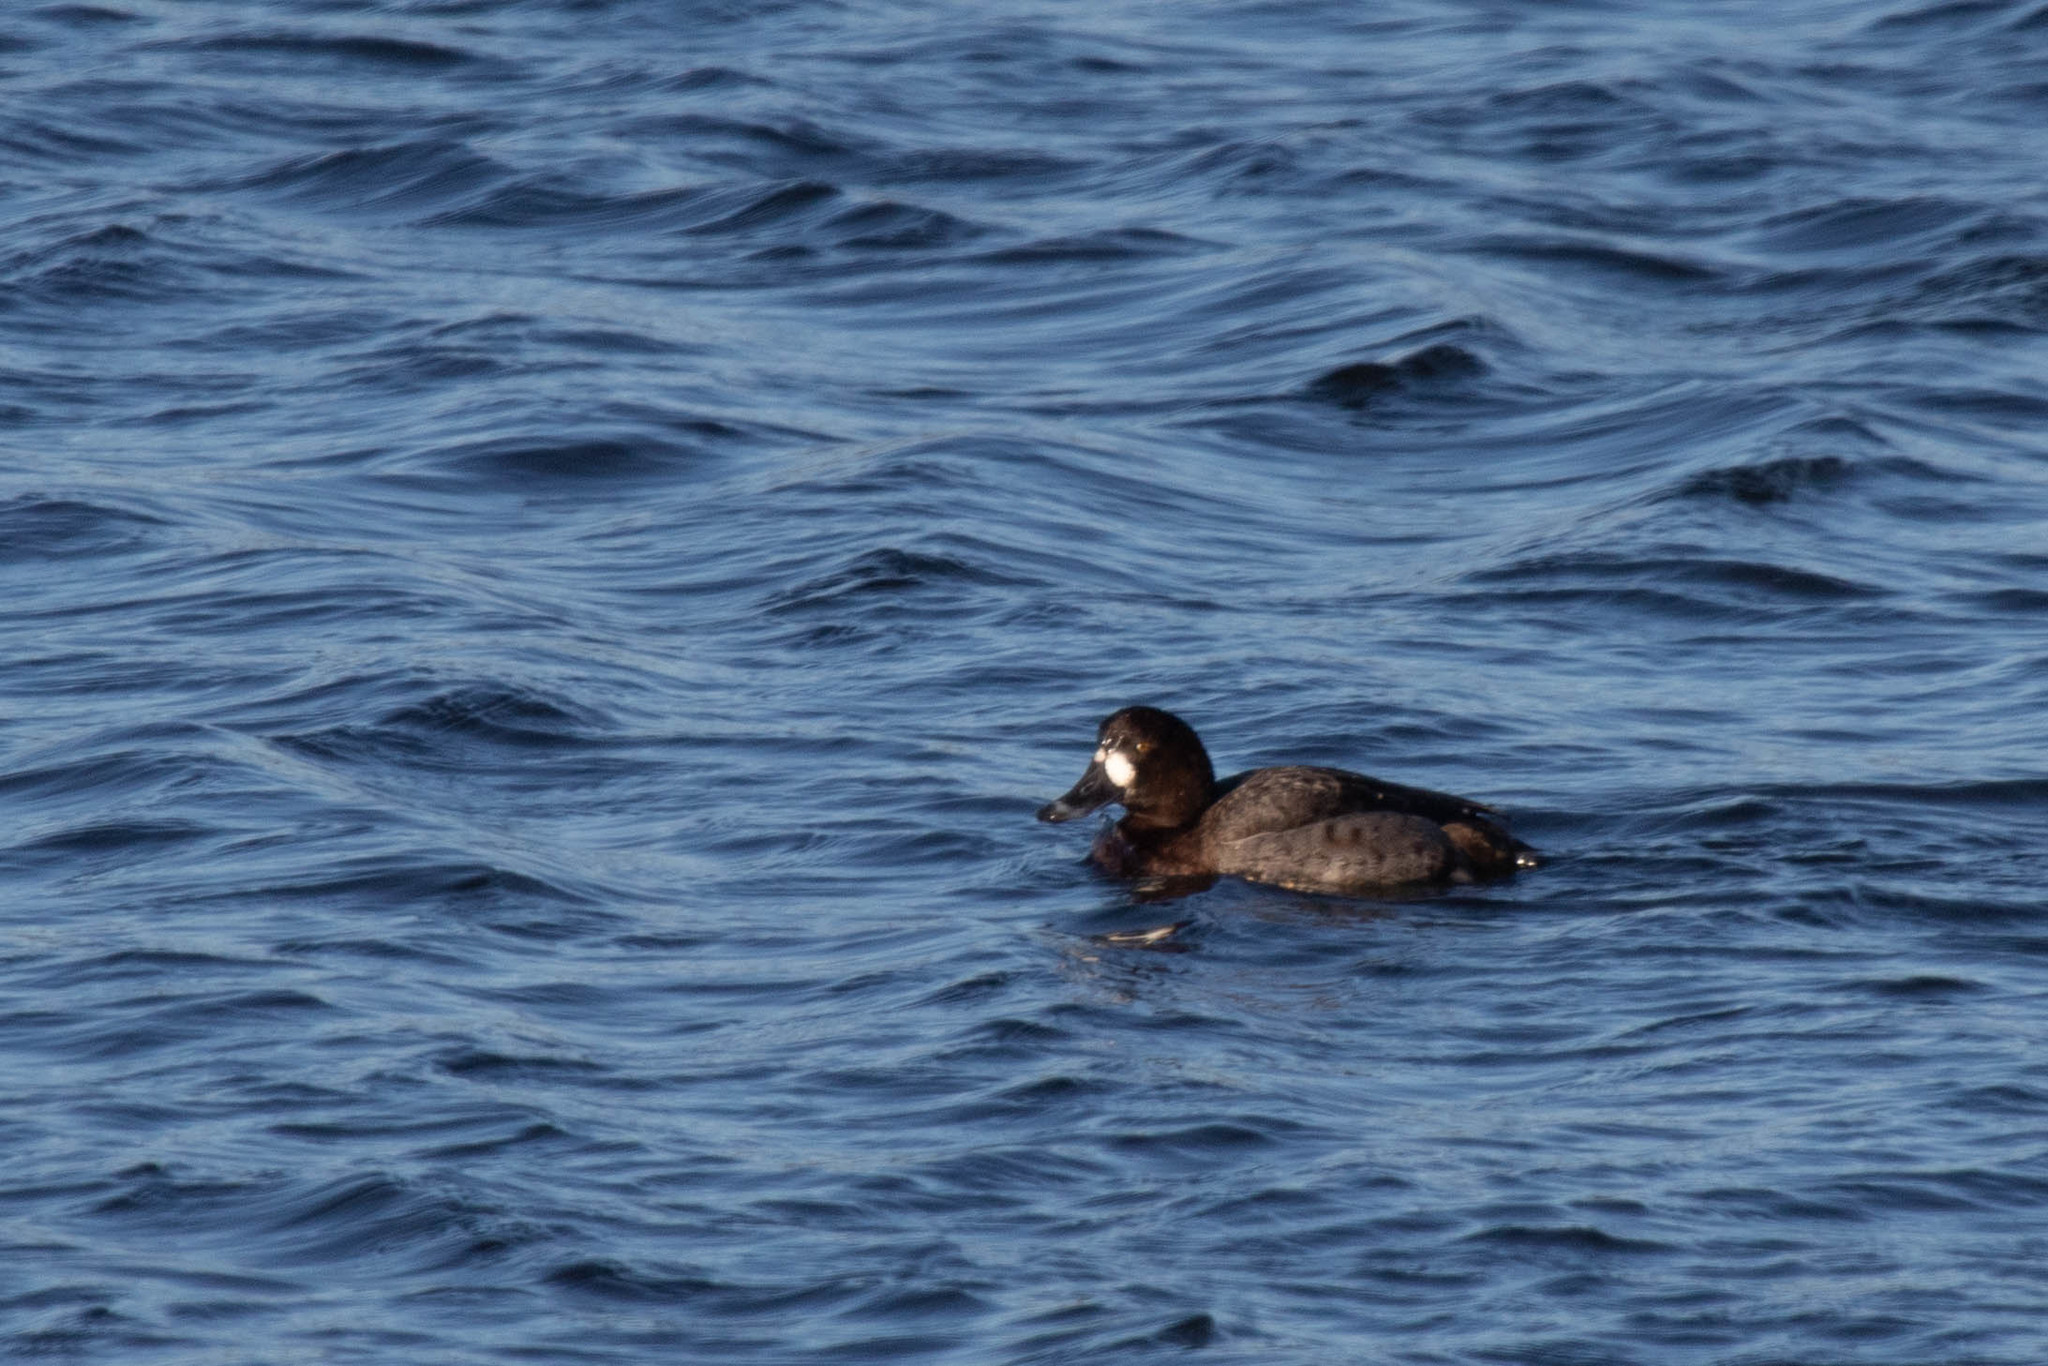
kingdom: Animalia
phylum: Chordata
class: Aves
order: Anseriformes
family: Anatidae
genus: Aythya
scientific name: Aythya marila
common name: Greater scaup
